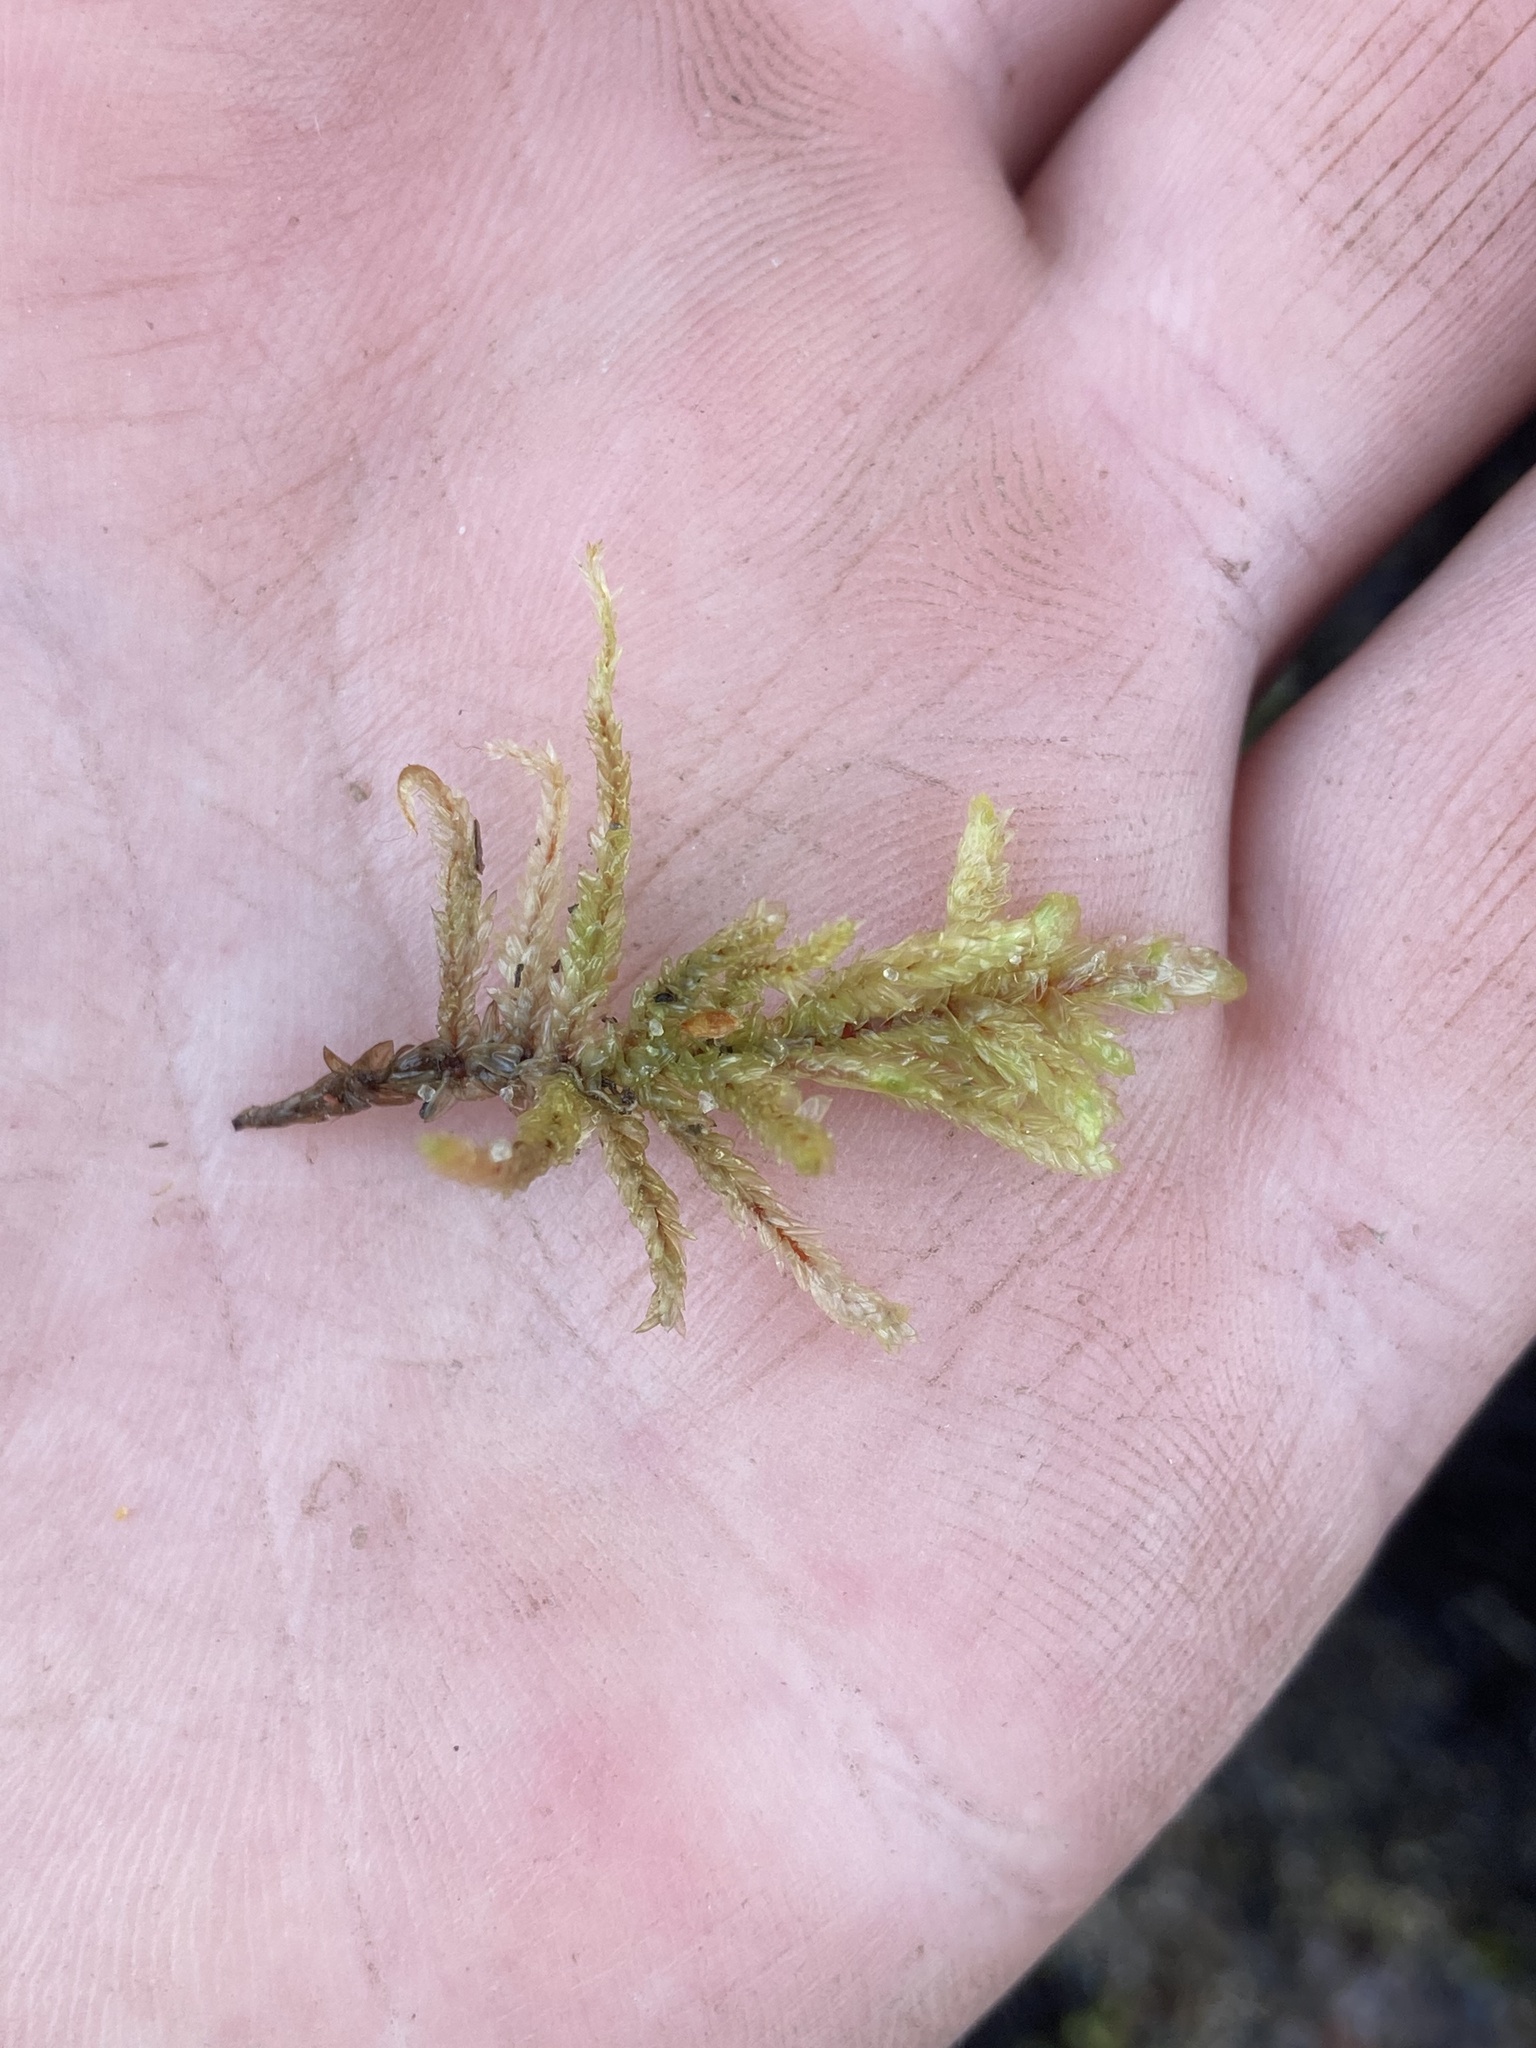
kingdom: Plantae
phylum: Bryophyta
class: Bryopsida
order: Hypnales
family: Hylocomiaceae
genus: Pleurozium
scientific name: Pleurozium schreberi
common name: Red-stemmed feather moss
